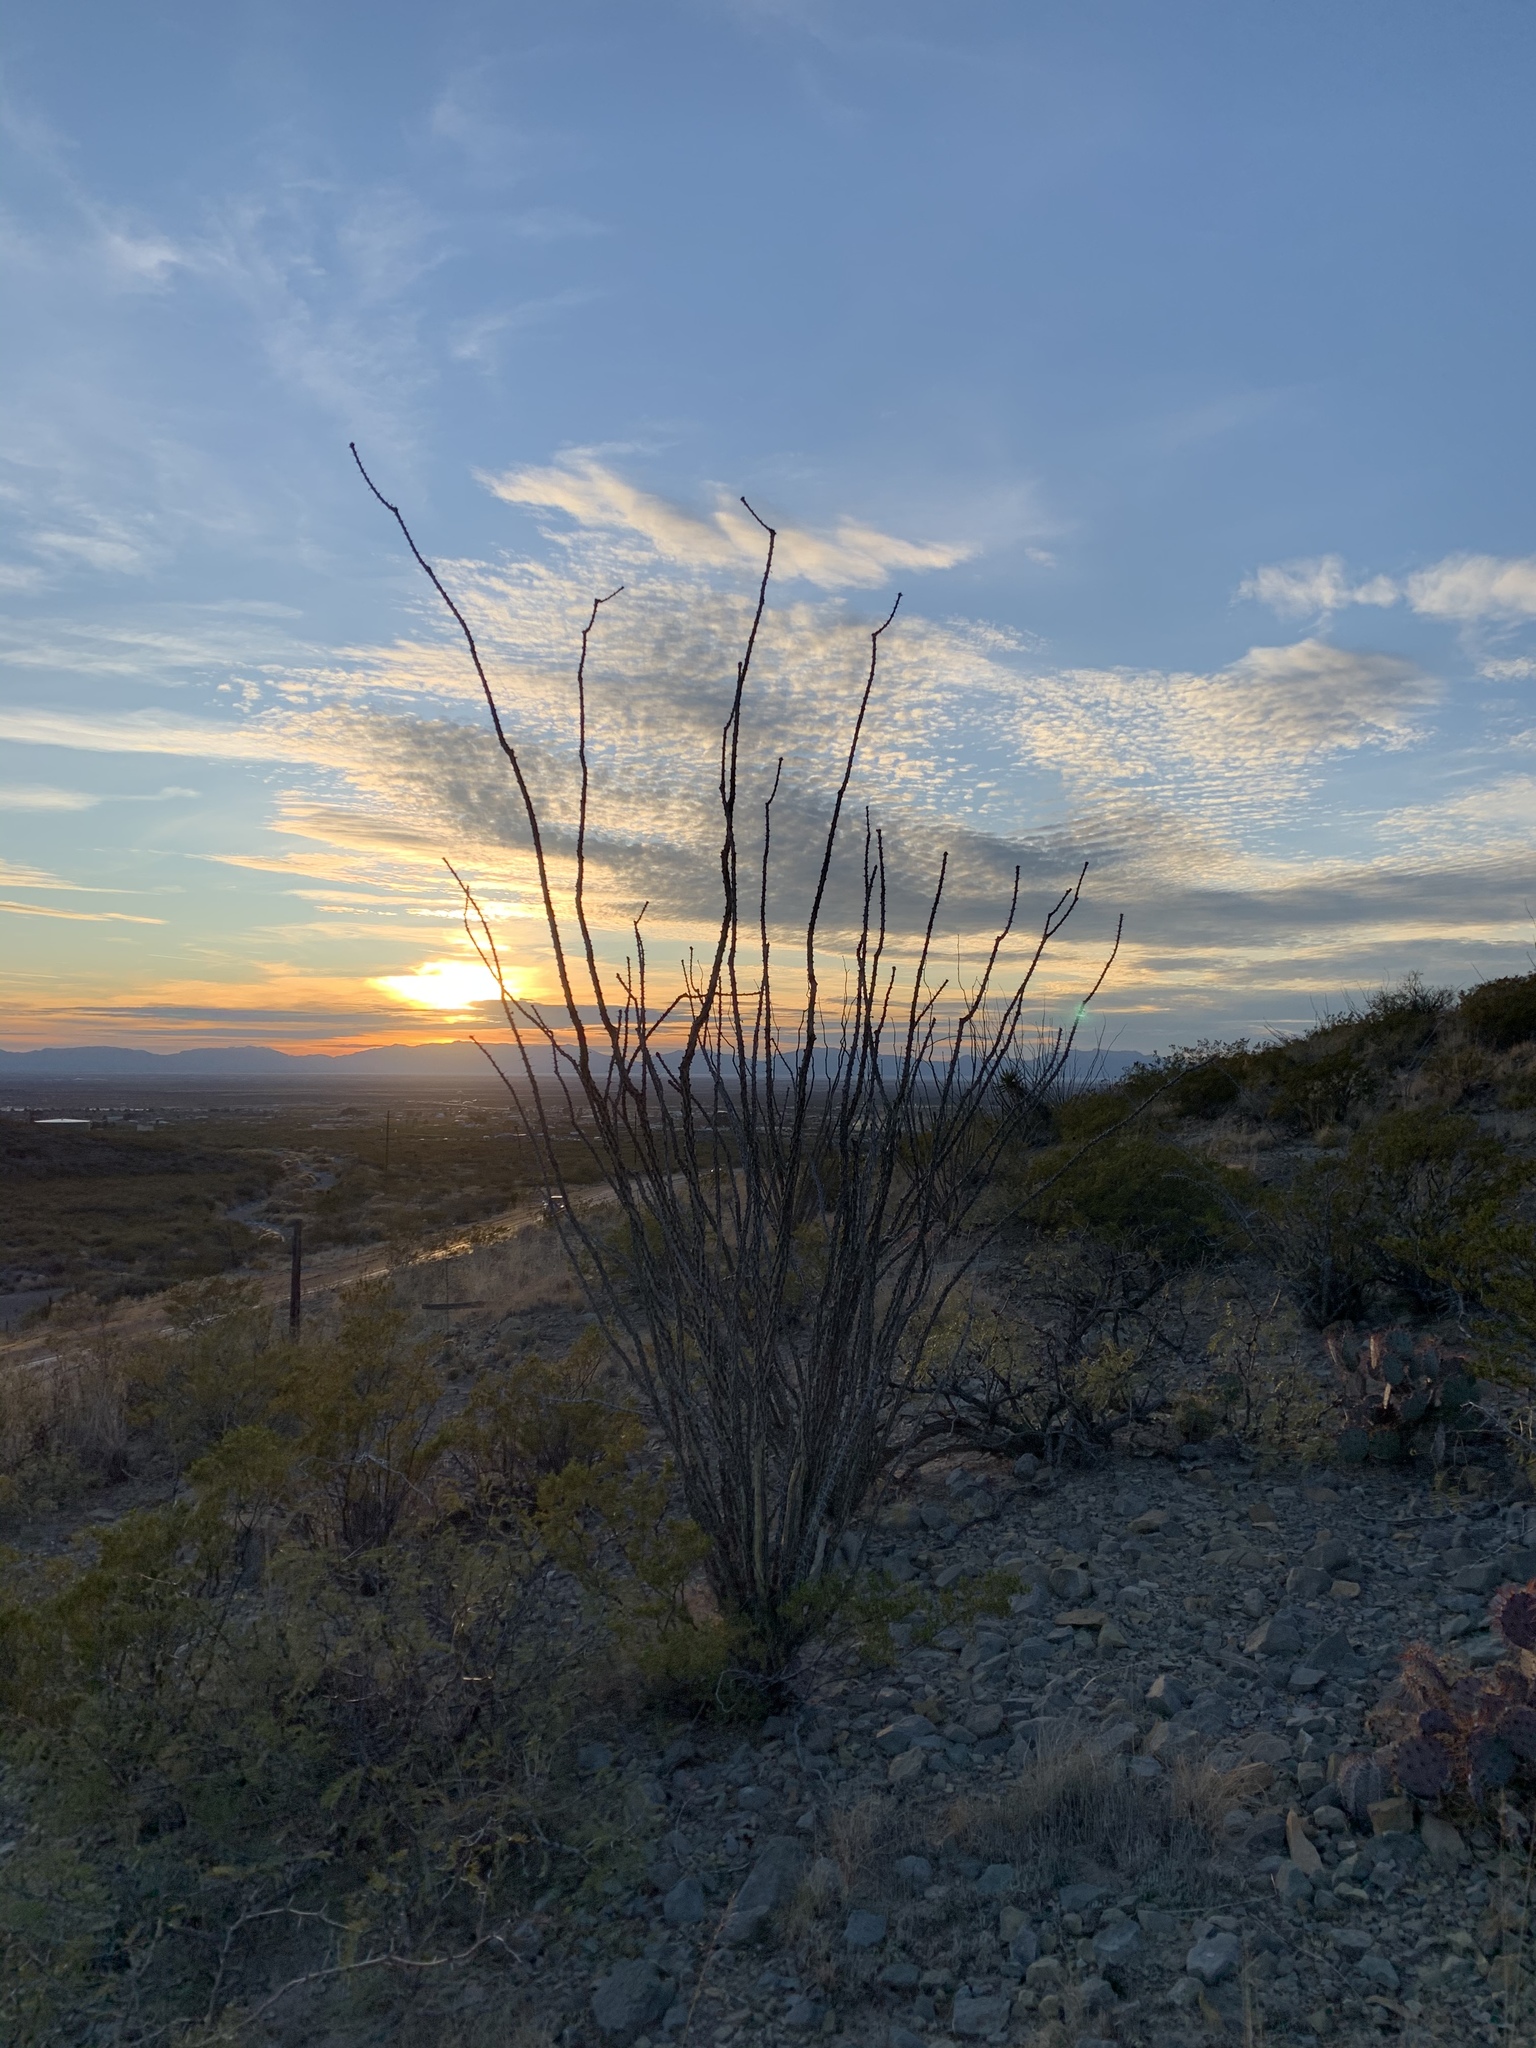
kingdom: Plantae
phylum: Tracheophyta
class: Magnoliopsida
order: Ericales
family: Fouquieriaceae
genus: Fouquieria
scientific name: Fouquieria splendens
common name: Vine-cactus
